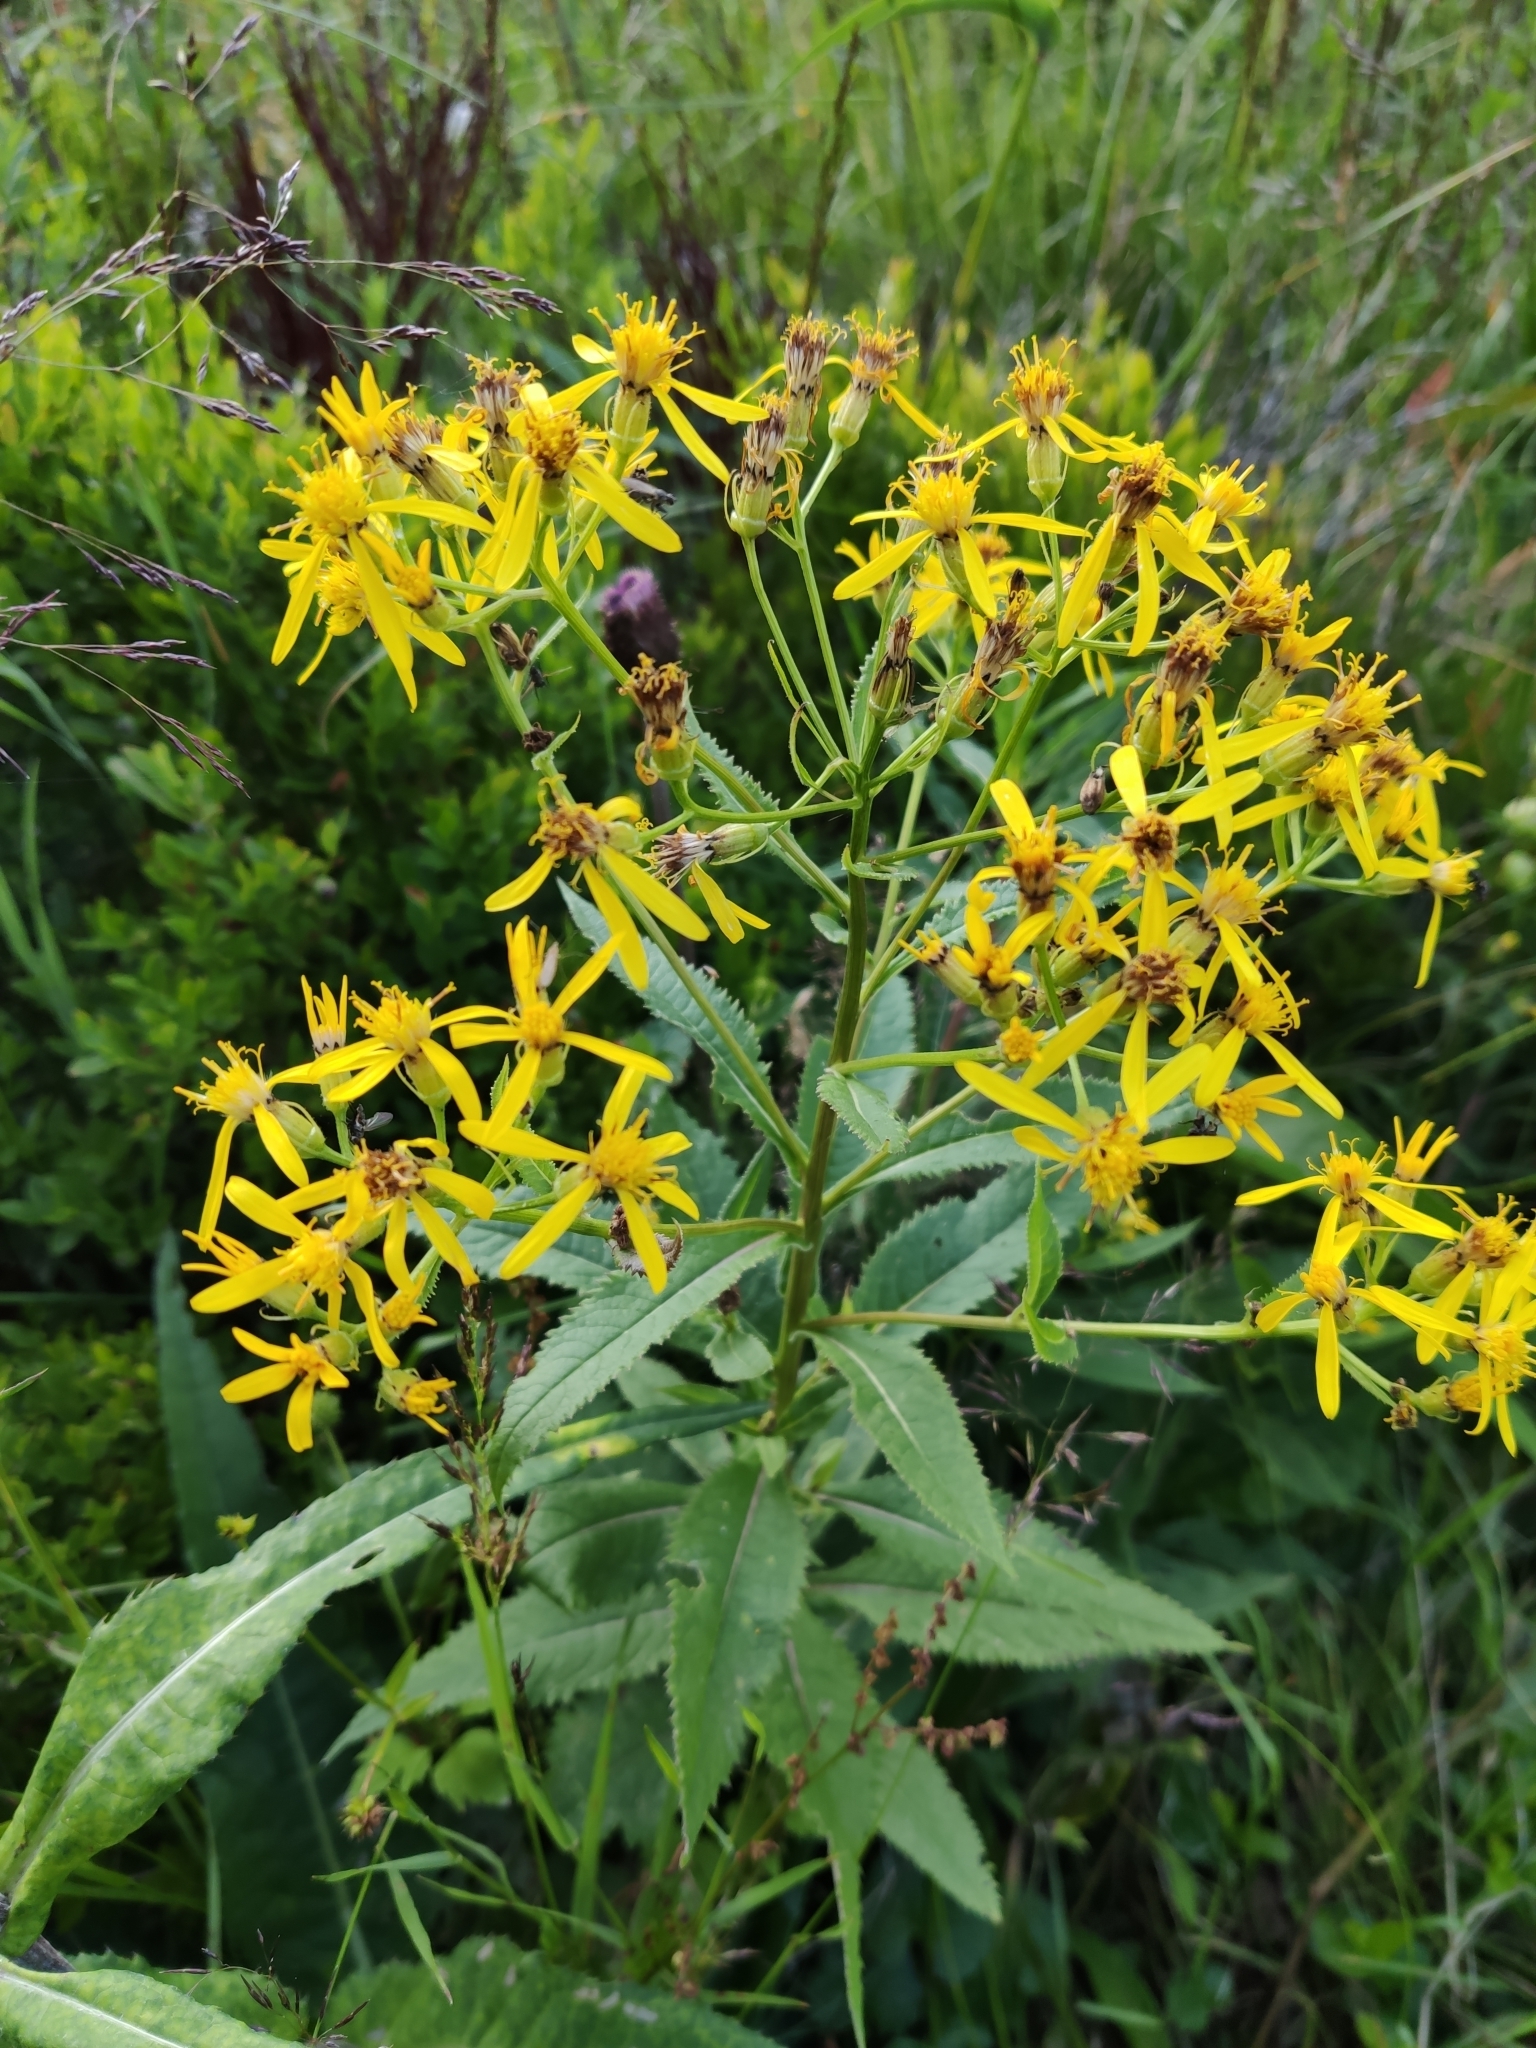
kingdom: Plantae
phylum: Tracheophyta
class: Magnoliopsida
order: Asterales
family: Asteraceae
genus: Senecio
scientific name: Senecio ovatus
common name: Wood ragwort
